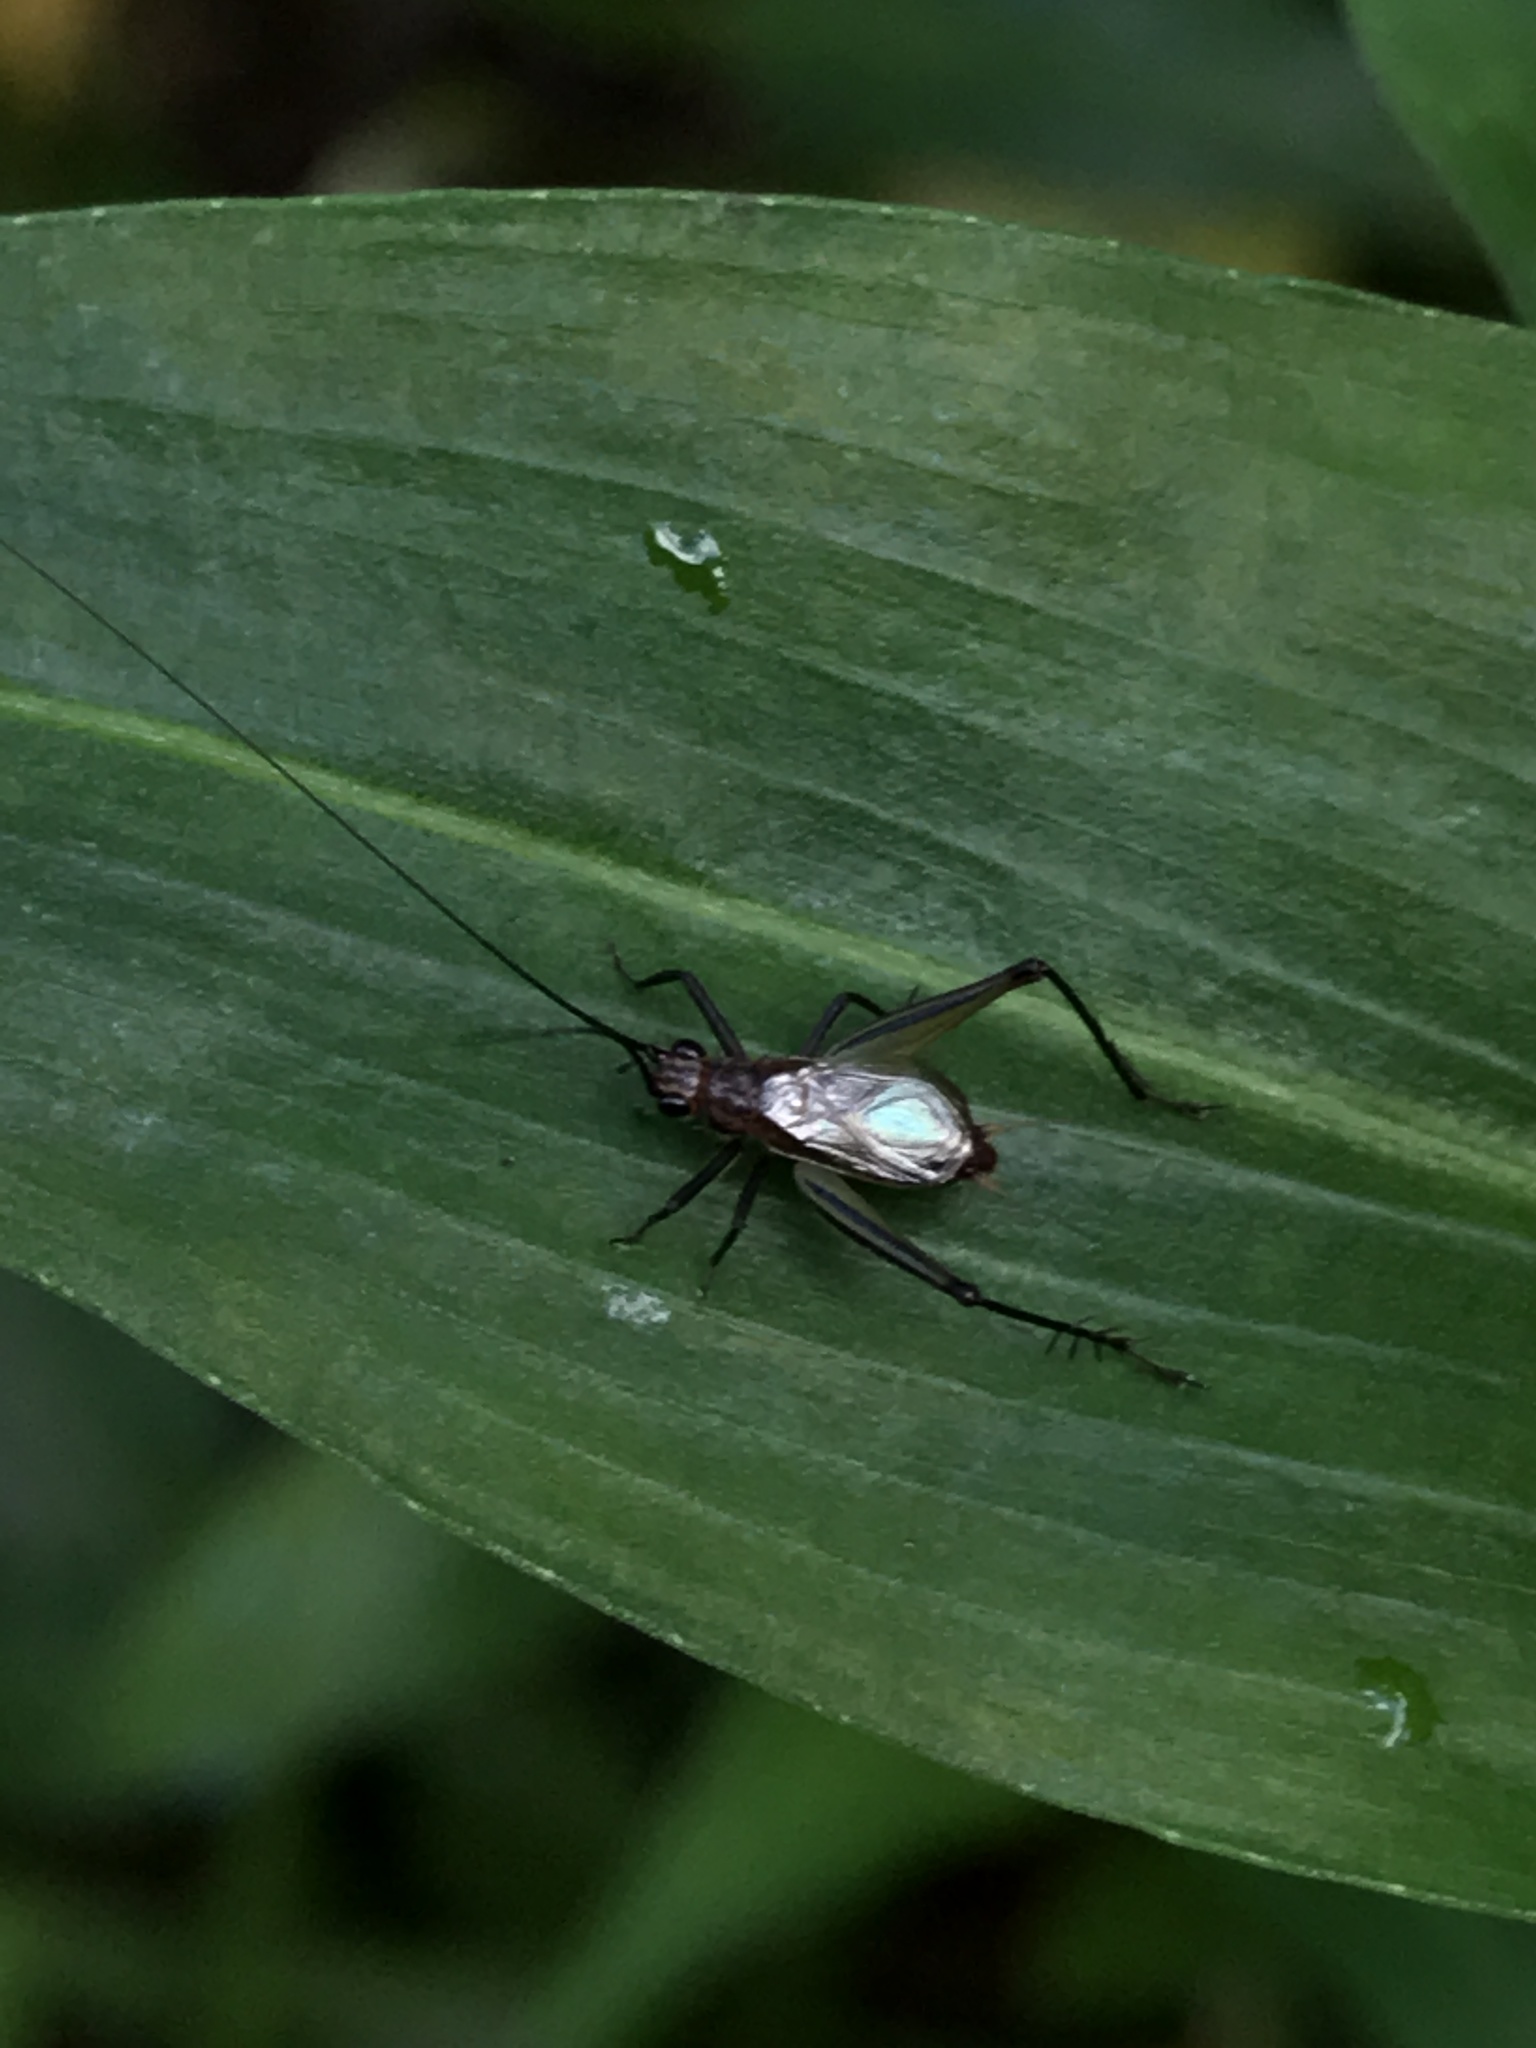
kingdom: Animalia
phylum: Arthropoda
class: Insecta
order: Orthoptera
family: Trigonidiidae
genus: Nanixipha
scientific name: Nanixipha nahoa
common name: Truncated true katydid
